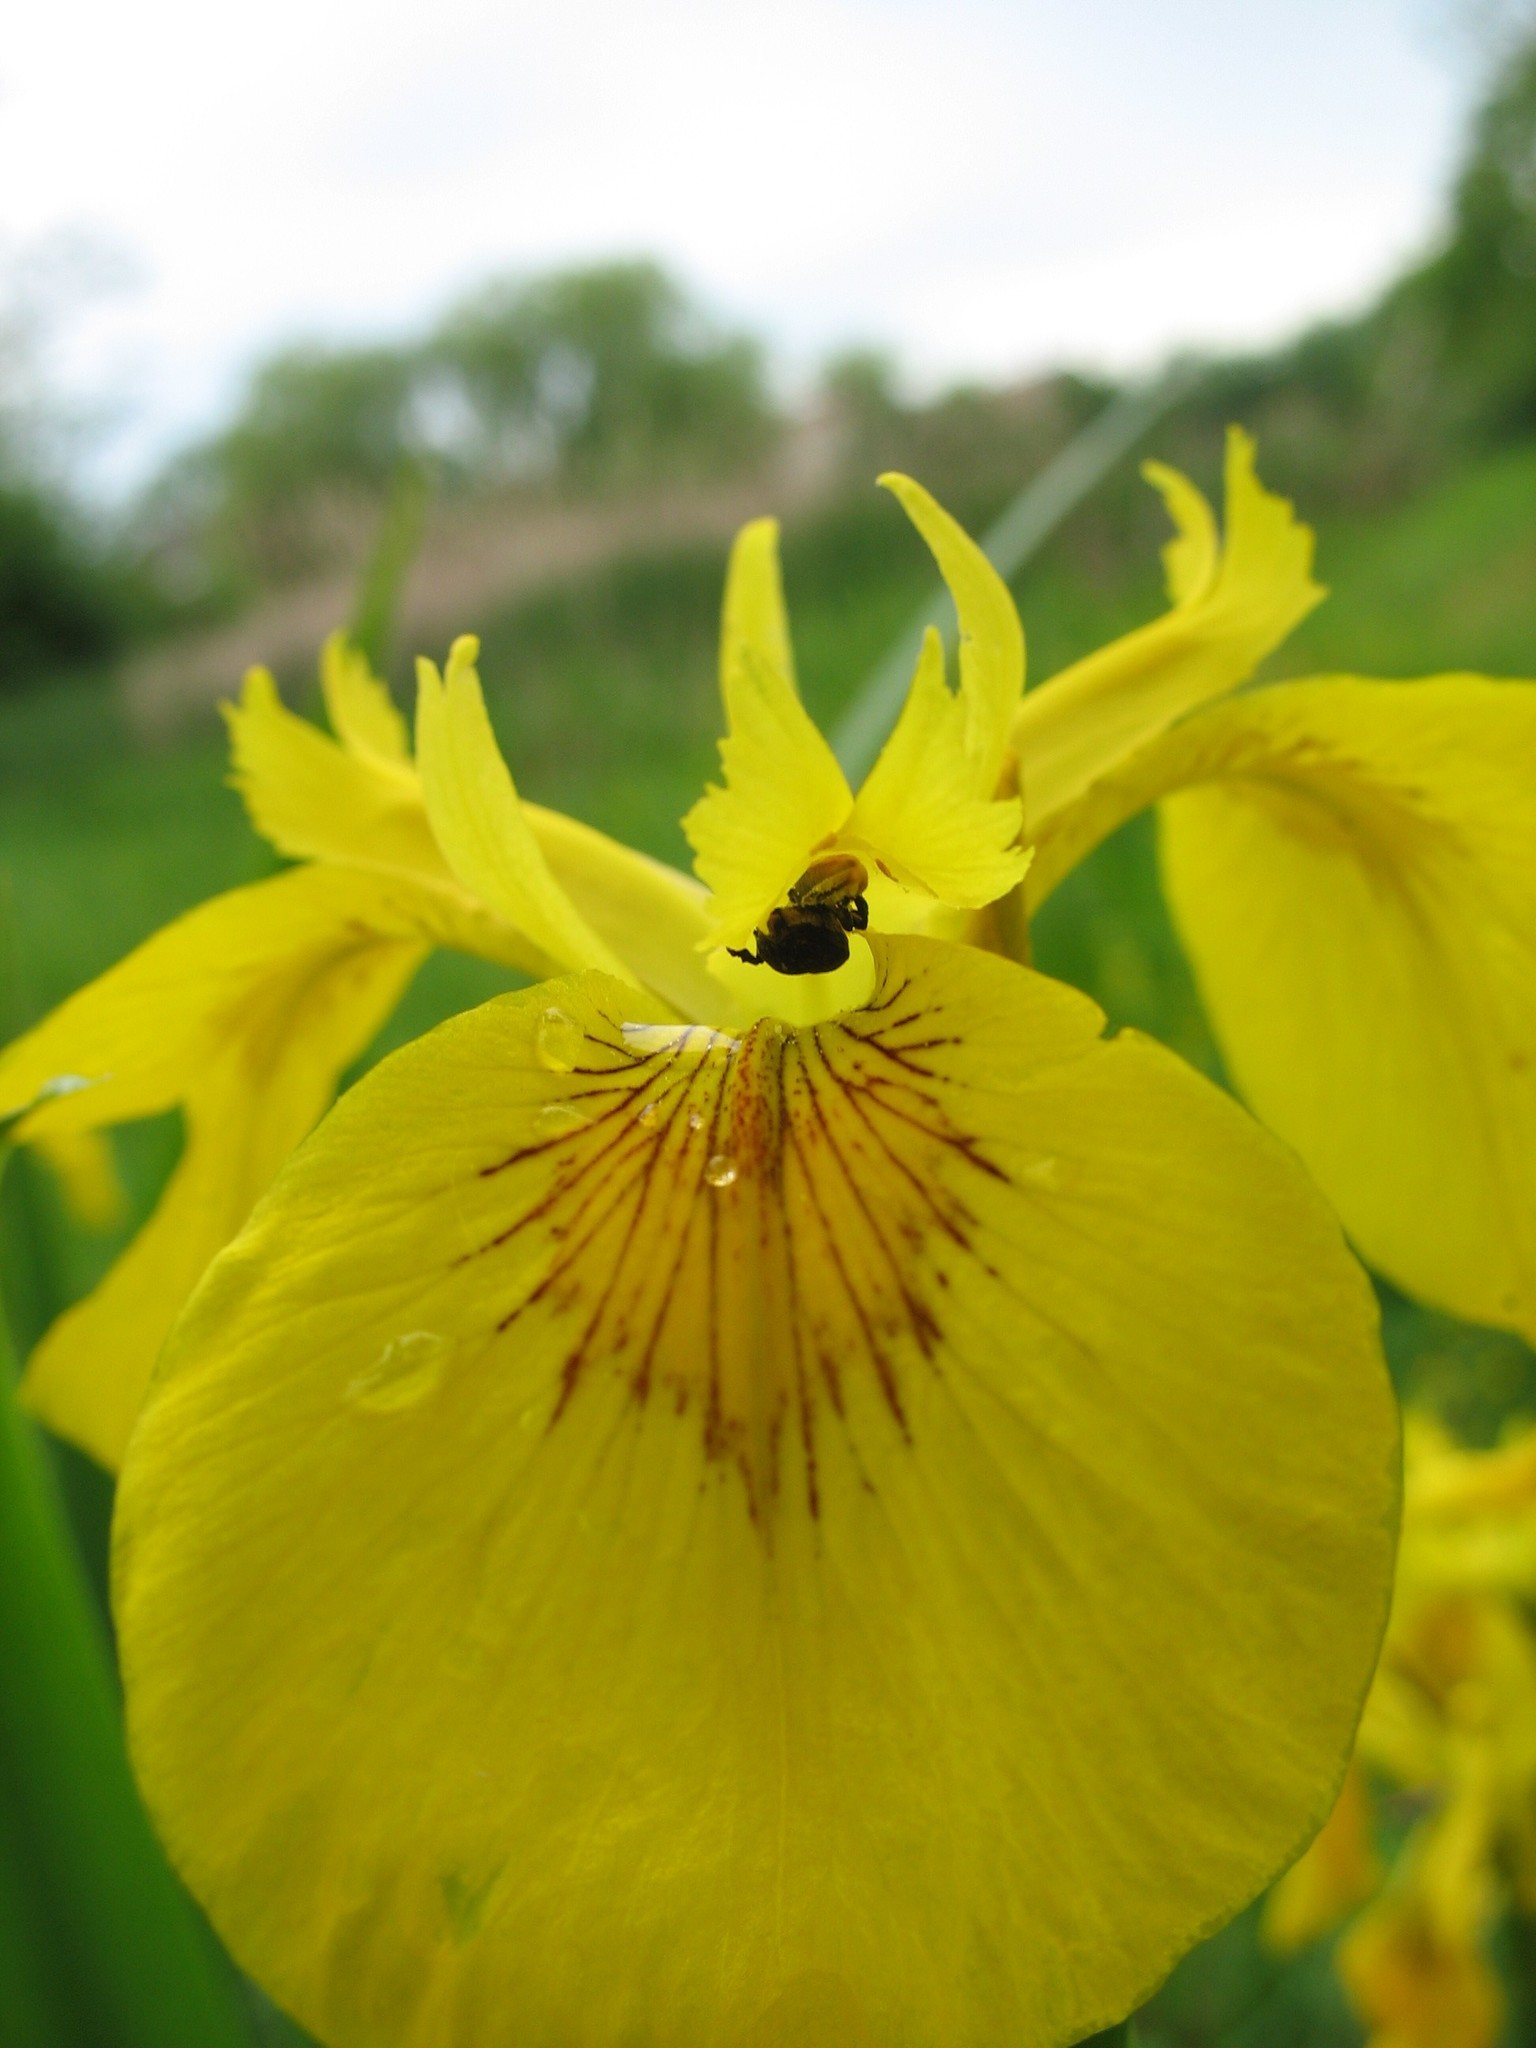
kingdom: Plantae
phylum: Tracheophyta
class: Liliopsida
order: Asparagales
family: Iridaceae
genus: Iris
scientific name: Iris pseudacorus
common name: Yellow flag
